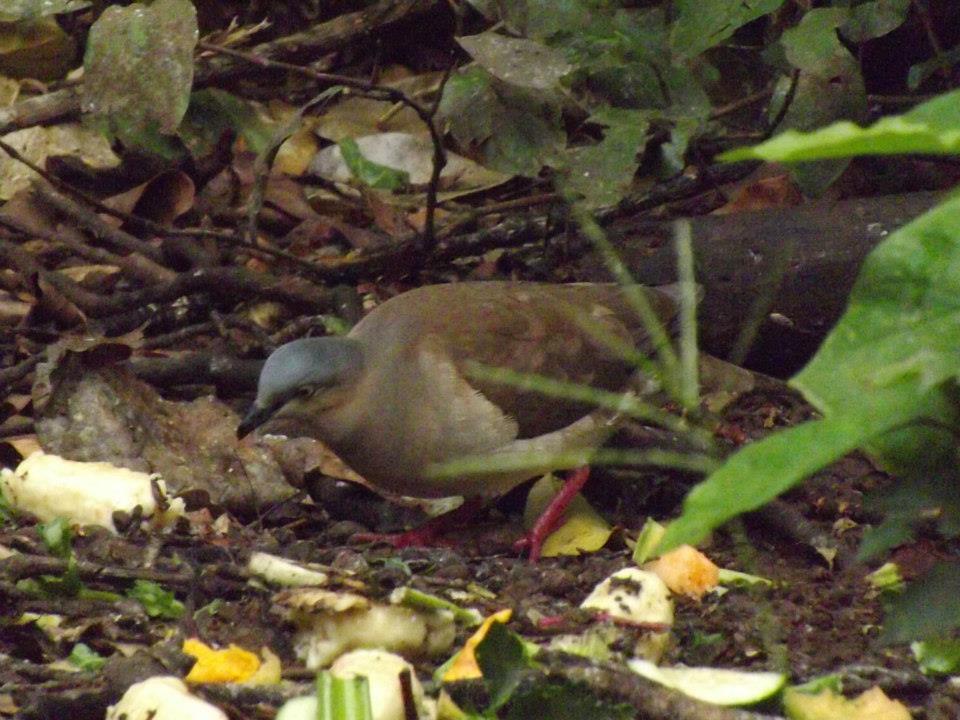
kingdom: Animalia
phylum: Chordata
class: Aves
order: Columbiformes
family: Columbidae
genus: Leptotila
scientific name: Leptotila plumbeiceps
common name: Grey-headed dove
